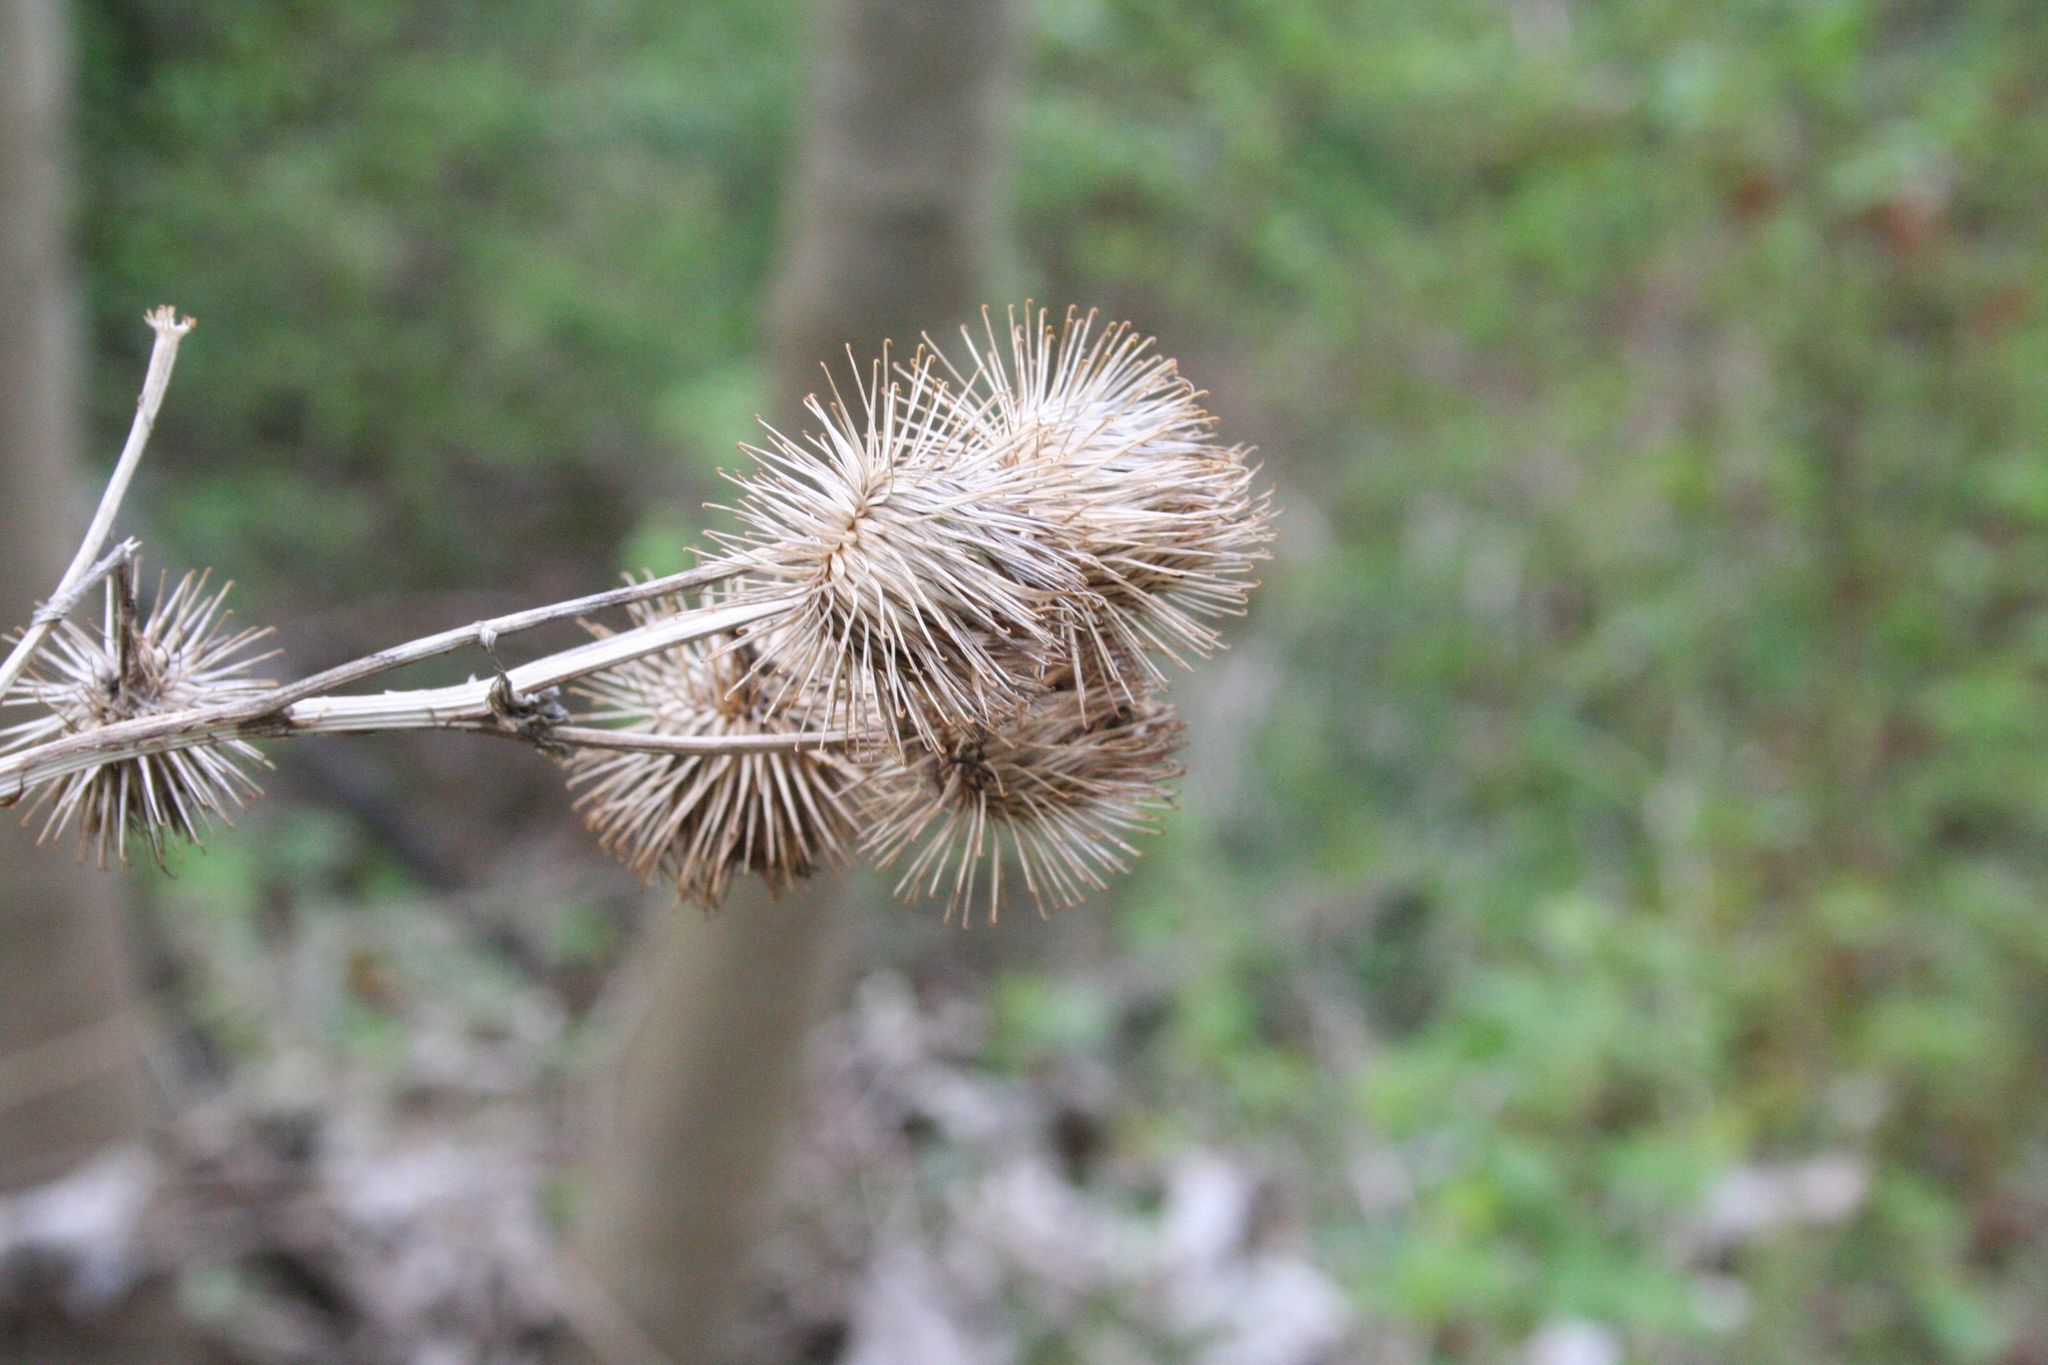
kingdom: Plantae
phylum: Tracheophyta
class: Magnoliopsida
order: Asterales
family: Asteraceae
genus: Arctium
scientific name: Arctium lappa
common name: Greater burdock
